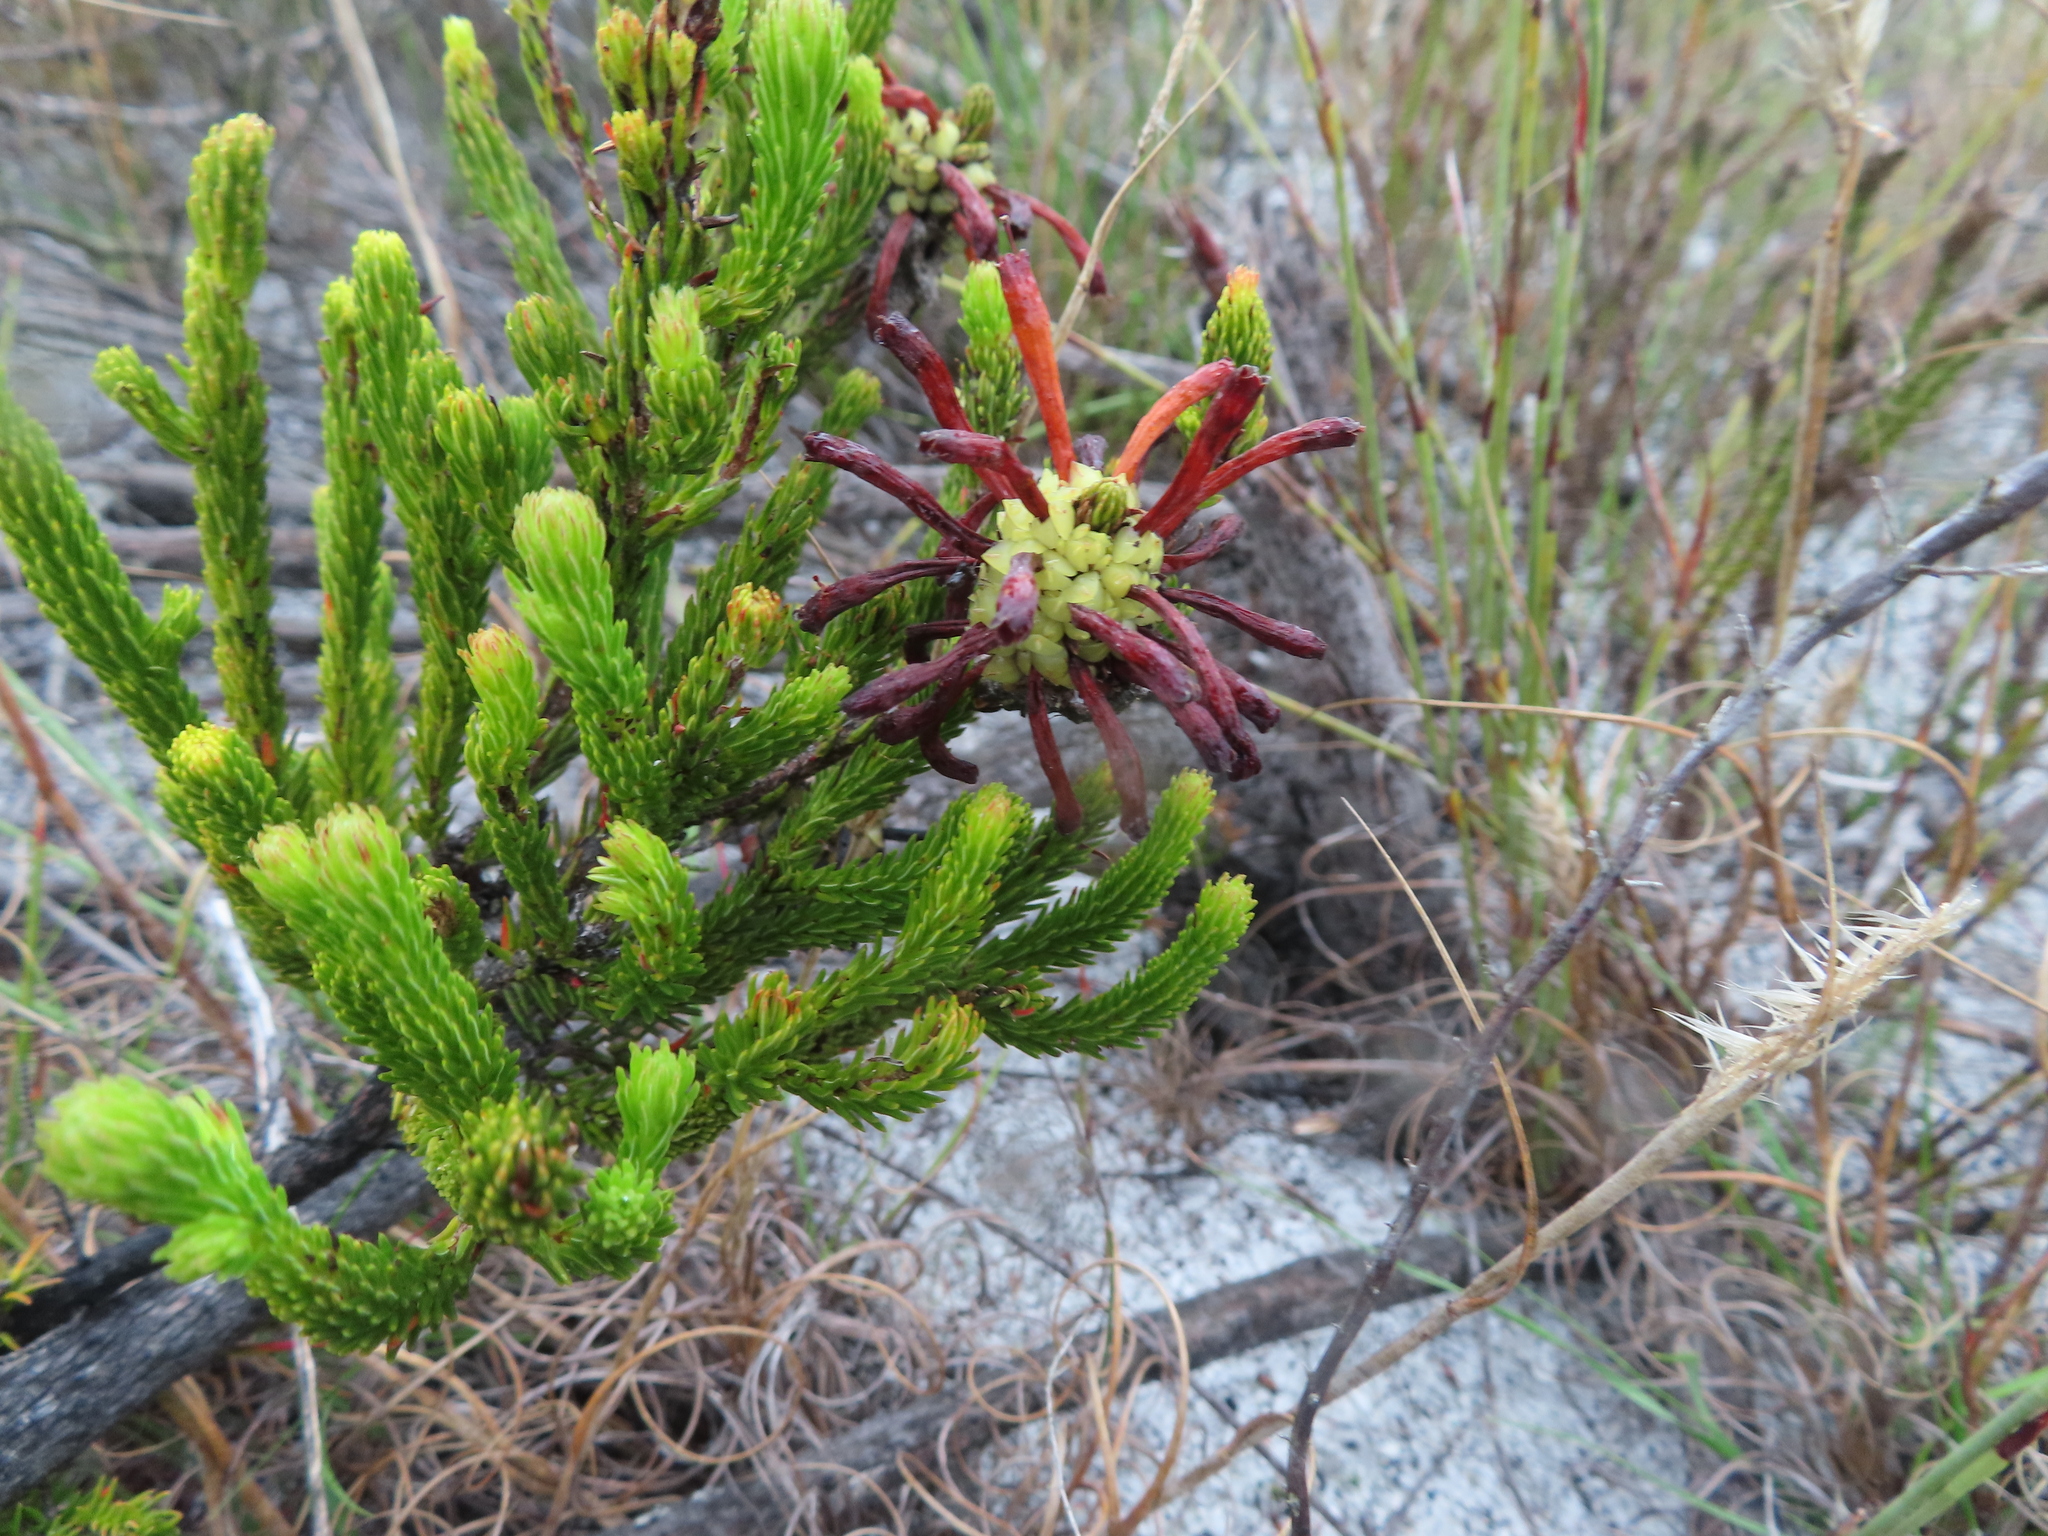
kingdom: Plantae
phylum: Tracheophyta
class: Magnoliopsida
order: Ericales
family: Ericaceae
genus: Erica
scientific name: Erica sessiliflora
